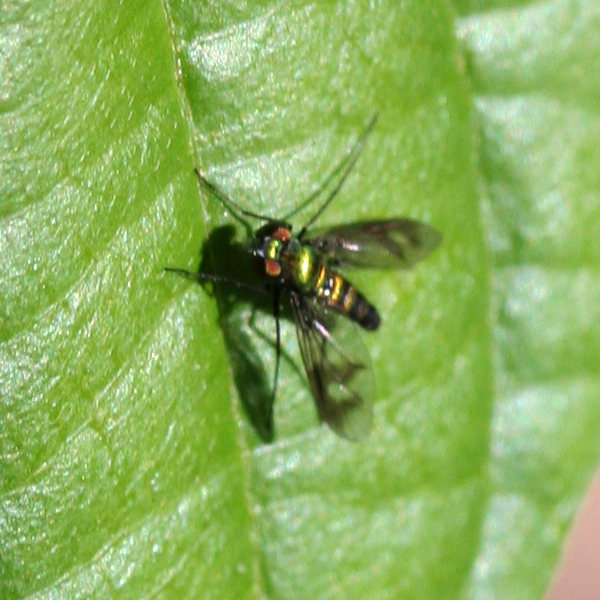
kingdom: Animalia
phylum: Arthropoda
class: Insecta
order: Diptera
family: Dolichopodidae
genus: Condylostylus
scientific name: Condylostylus patibulatus
